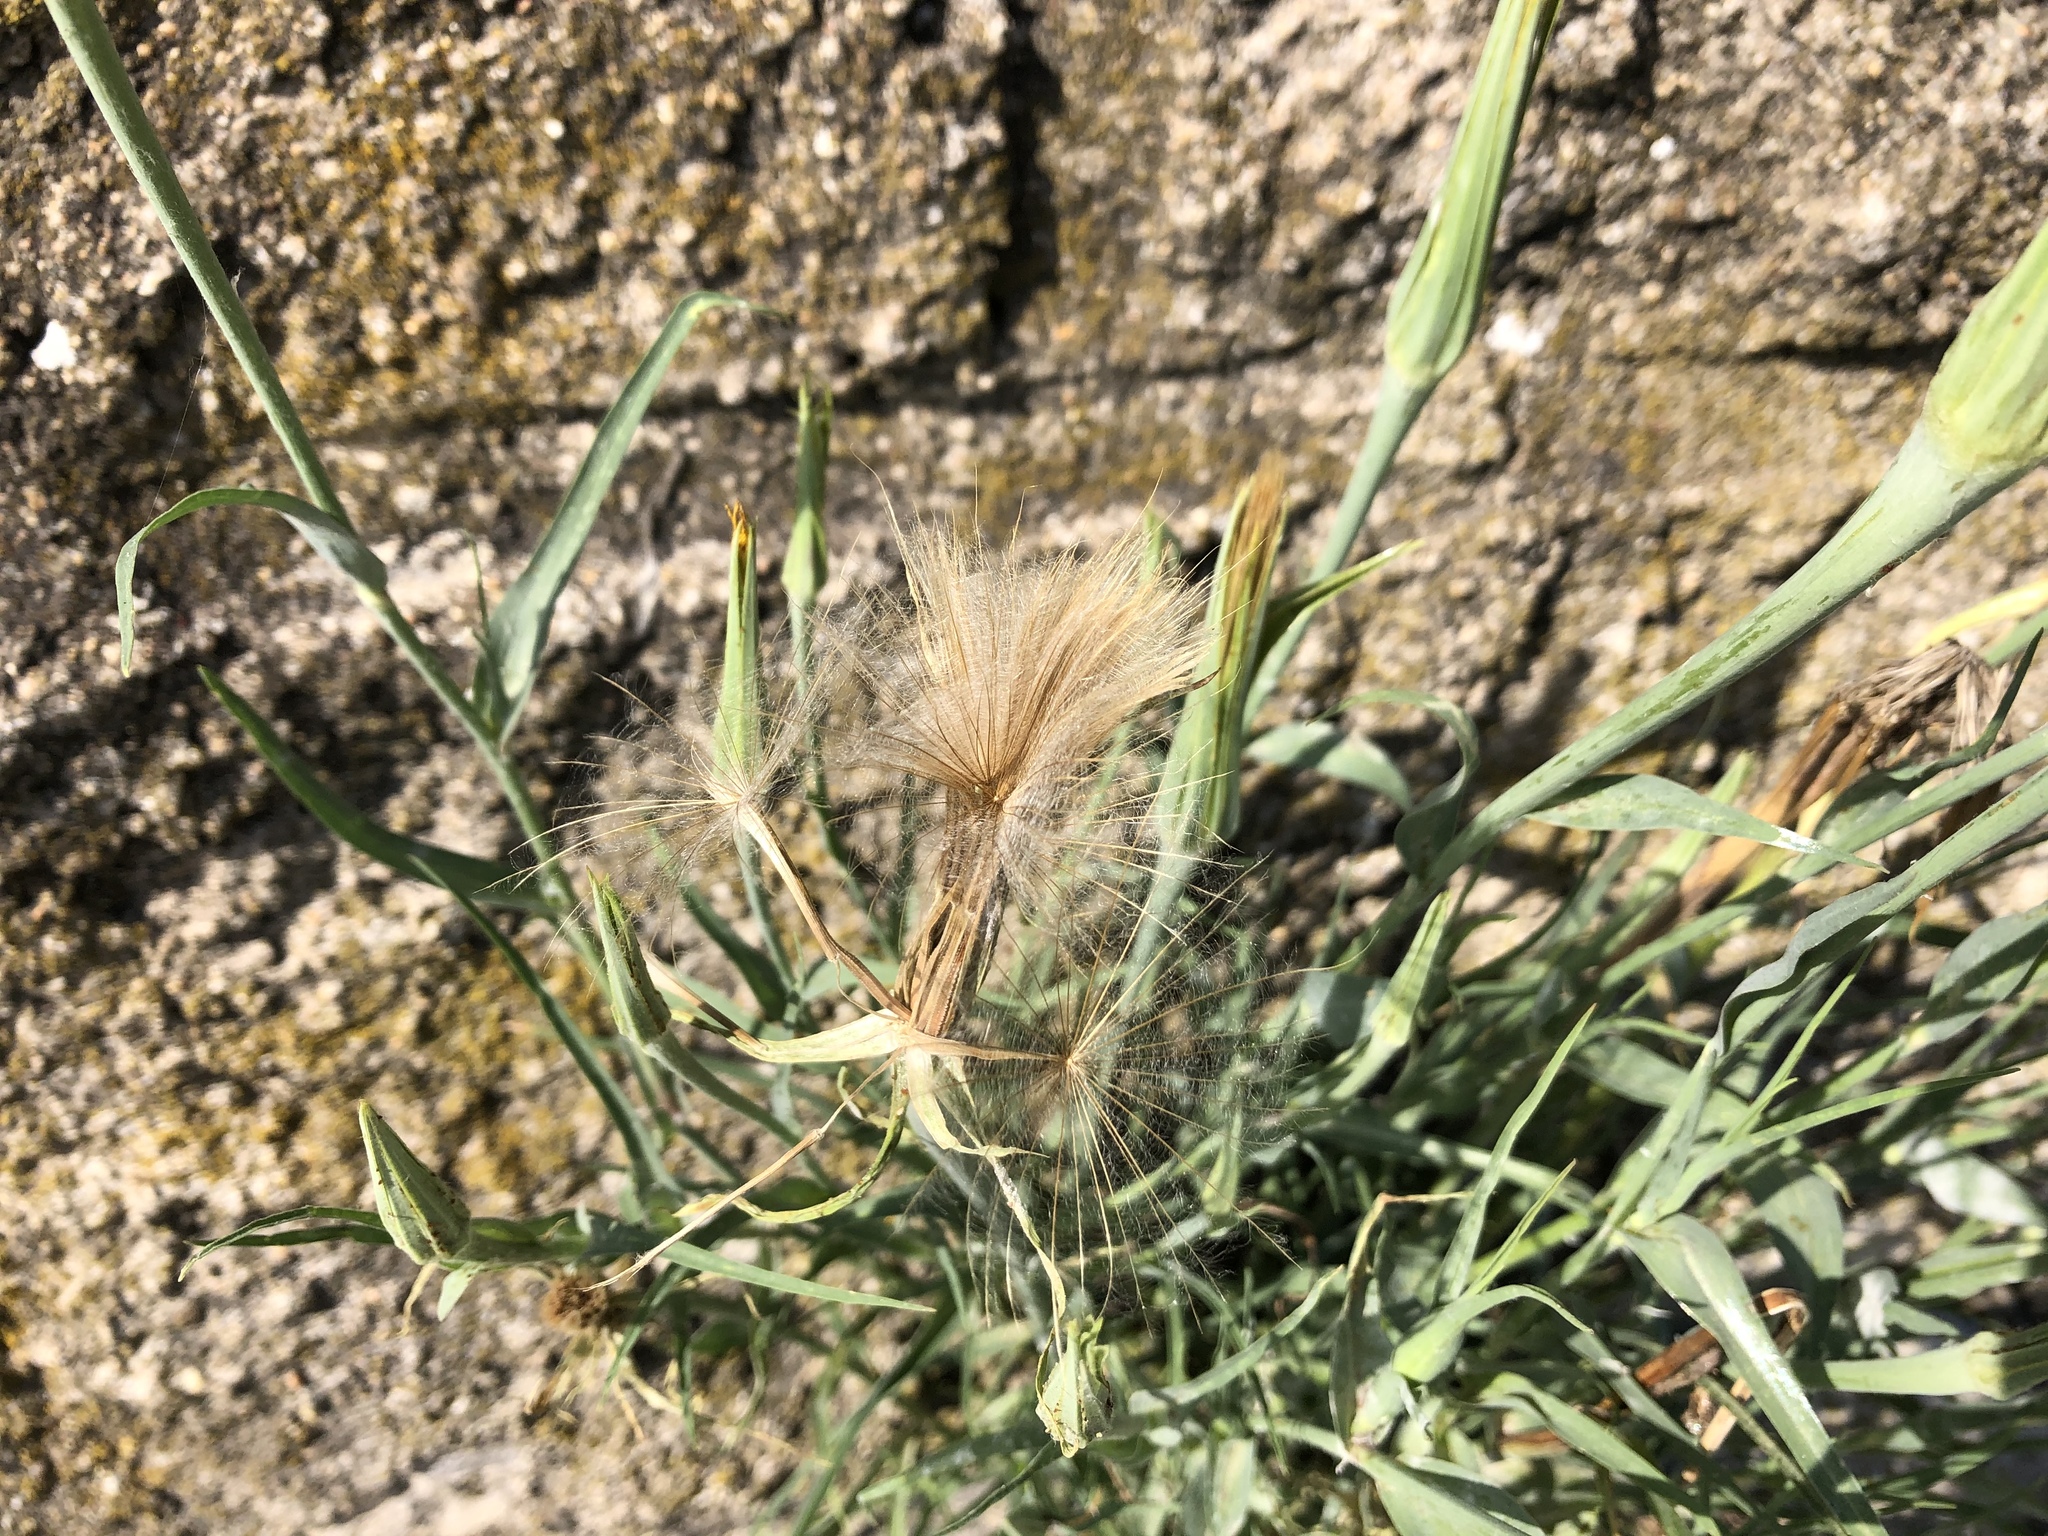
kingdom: Plantae
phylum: Tracheophyta
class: Magnoliopsida
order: Asterales
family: Asteraceae
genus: Tragopogon
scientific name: Tragopogon dubius
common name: Yellow salsify
